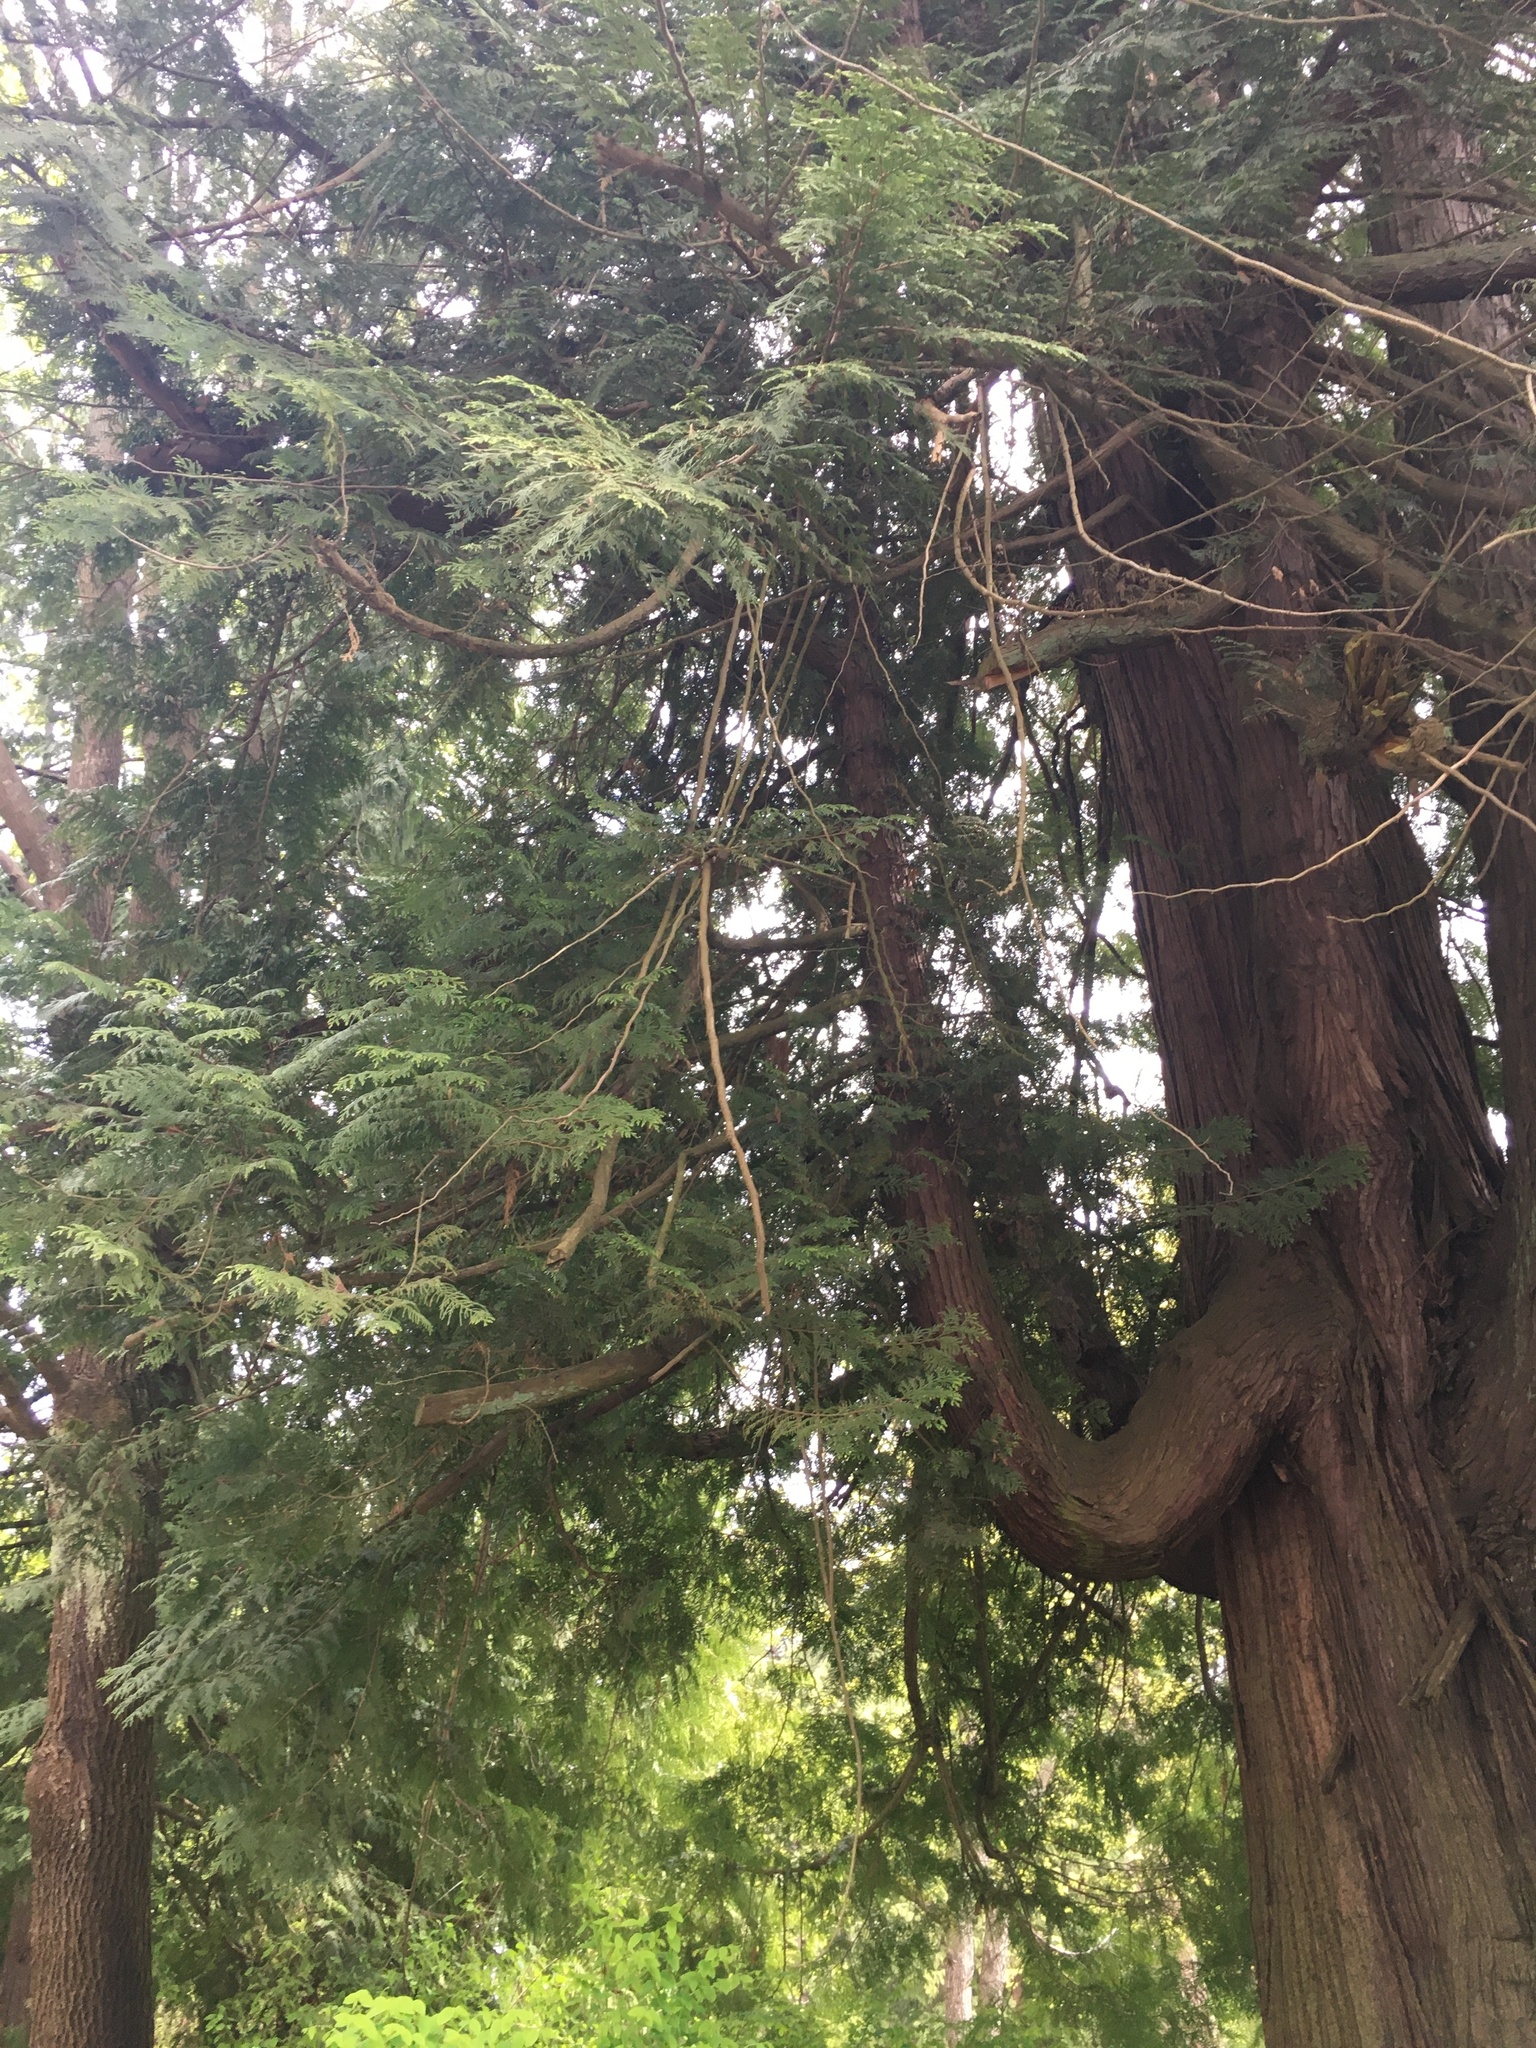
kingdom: Plantae
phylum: Tracheophyta
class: Pinopsida
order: Pinales
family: Cupressaceae
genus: Thuja
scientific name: Thuja plicata
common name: Western red-cedar
